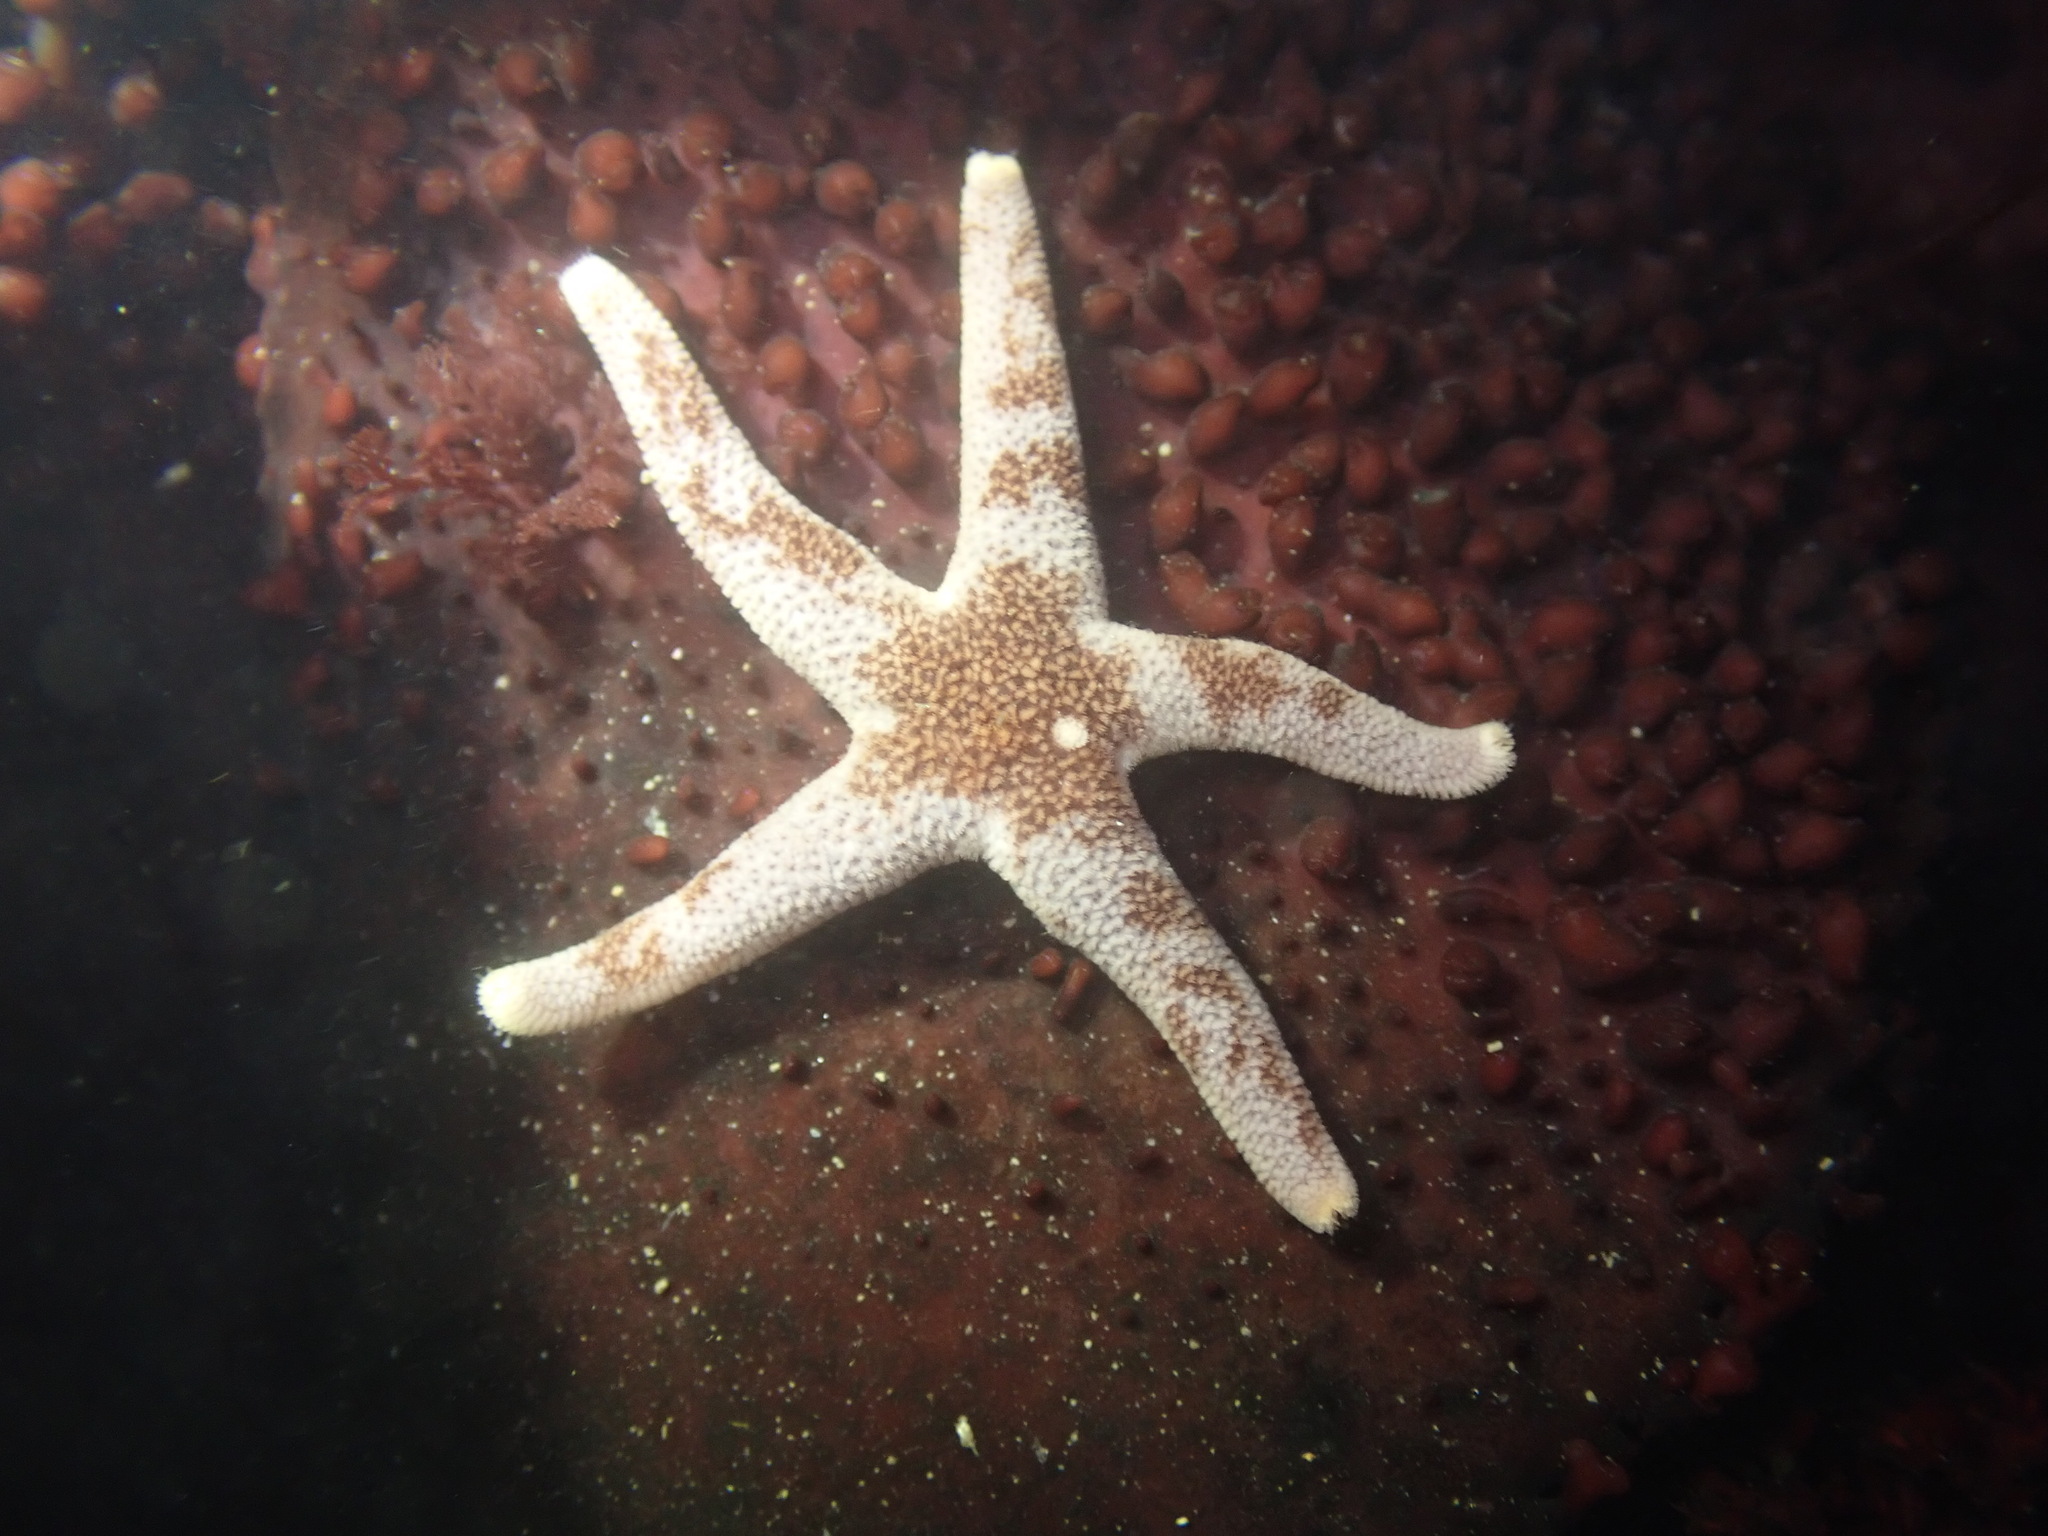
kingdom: Animalia
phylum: Echinodermata
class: Asteroidea
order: Spinulosida
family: Echinasteridae
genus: Henricia
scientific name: Henricia pumila
